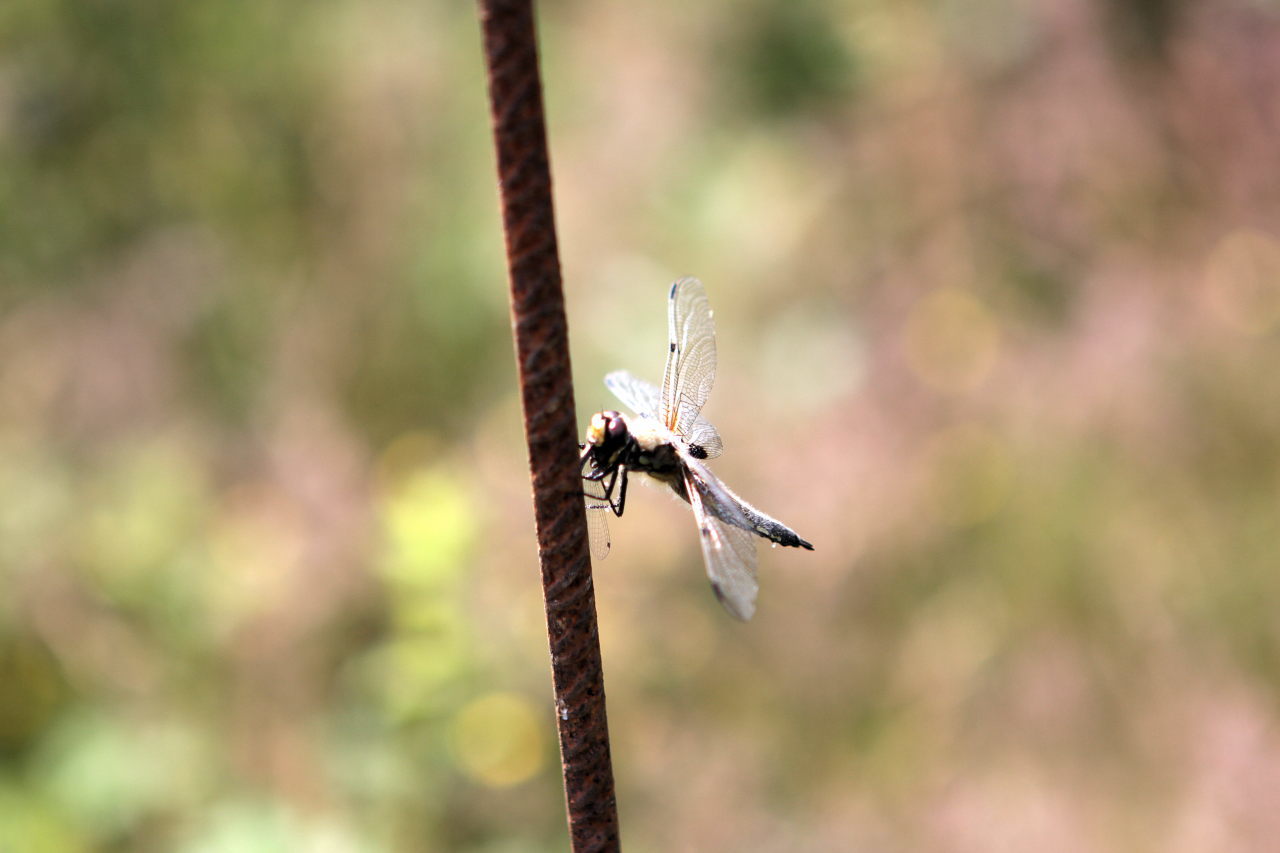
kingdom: Animalia
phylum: Arthropoda
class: Insecta
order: Odonata
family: Libellulidae
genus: Libellula
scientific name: Libellula quadrimaculata
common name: Four-spotted chaser
